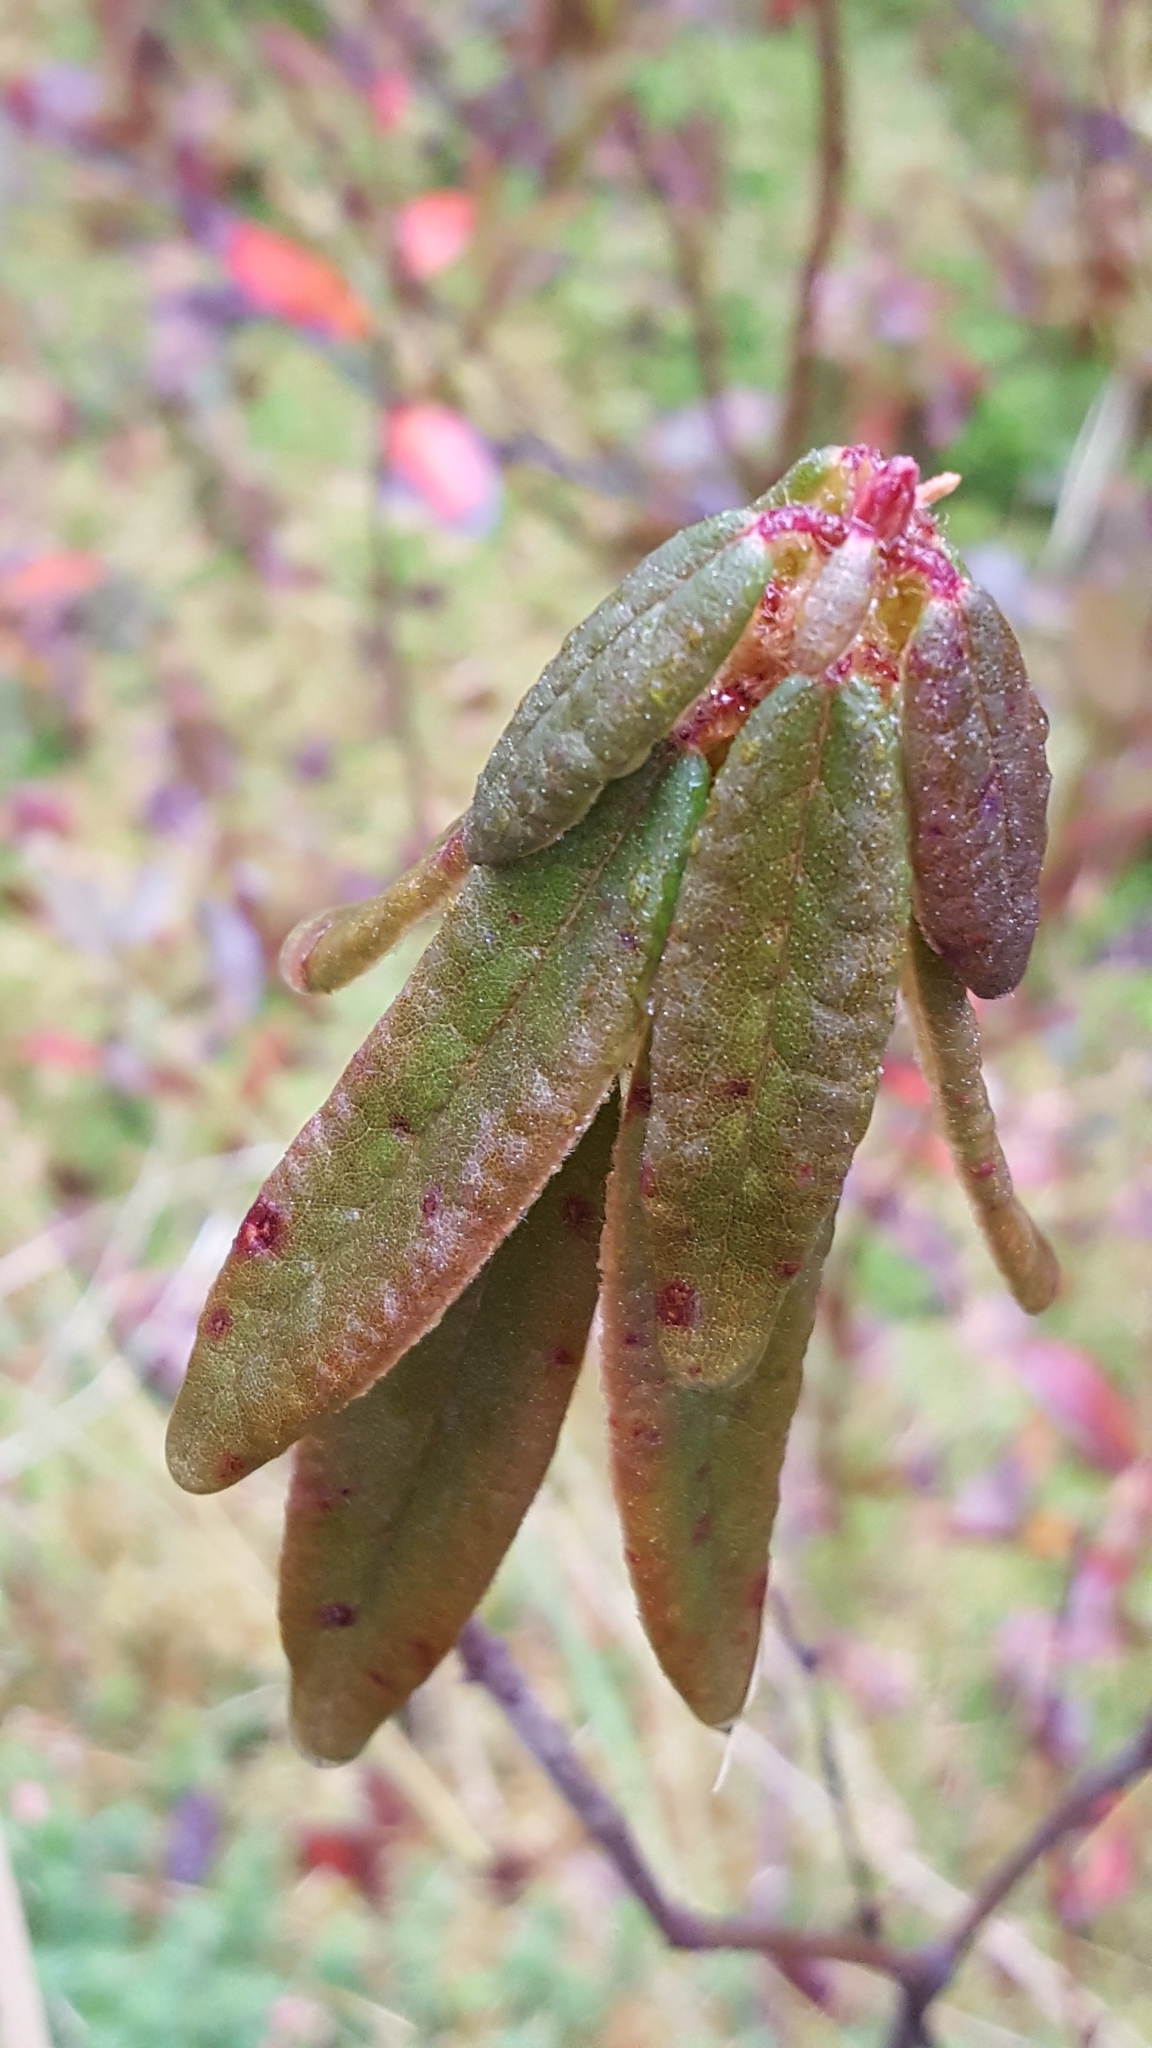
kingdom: Plantae
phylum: Tracheophyta
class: Magnoliopsida
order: Ericales
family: Ericaceae
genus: Rhododendron
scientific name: Rhododendron groenlandicum
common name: Bog labrador tea
